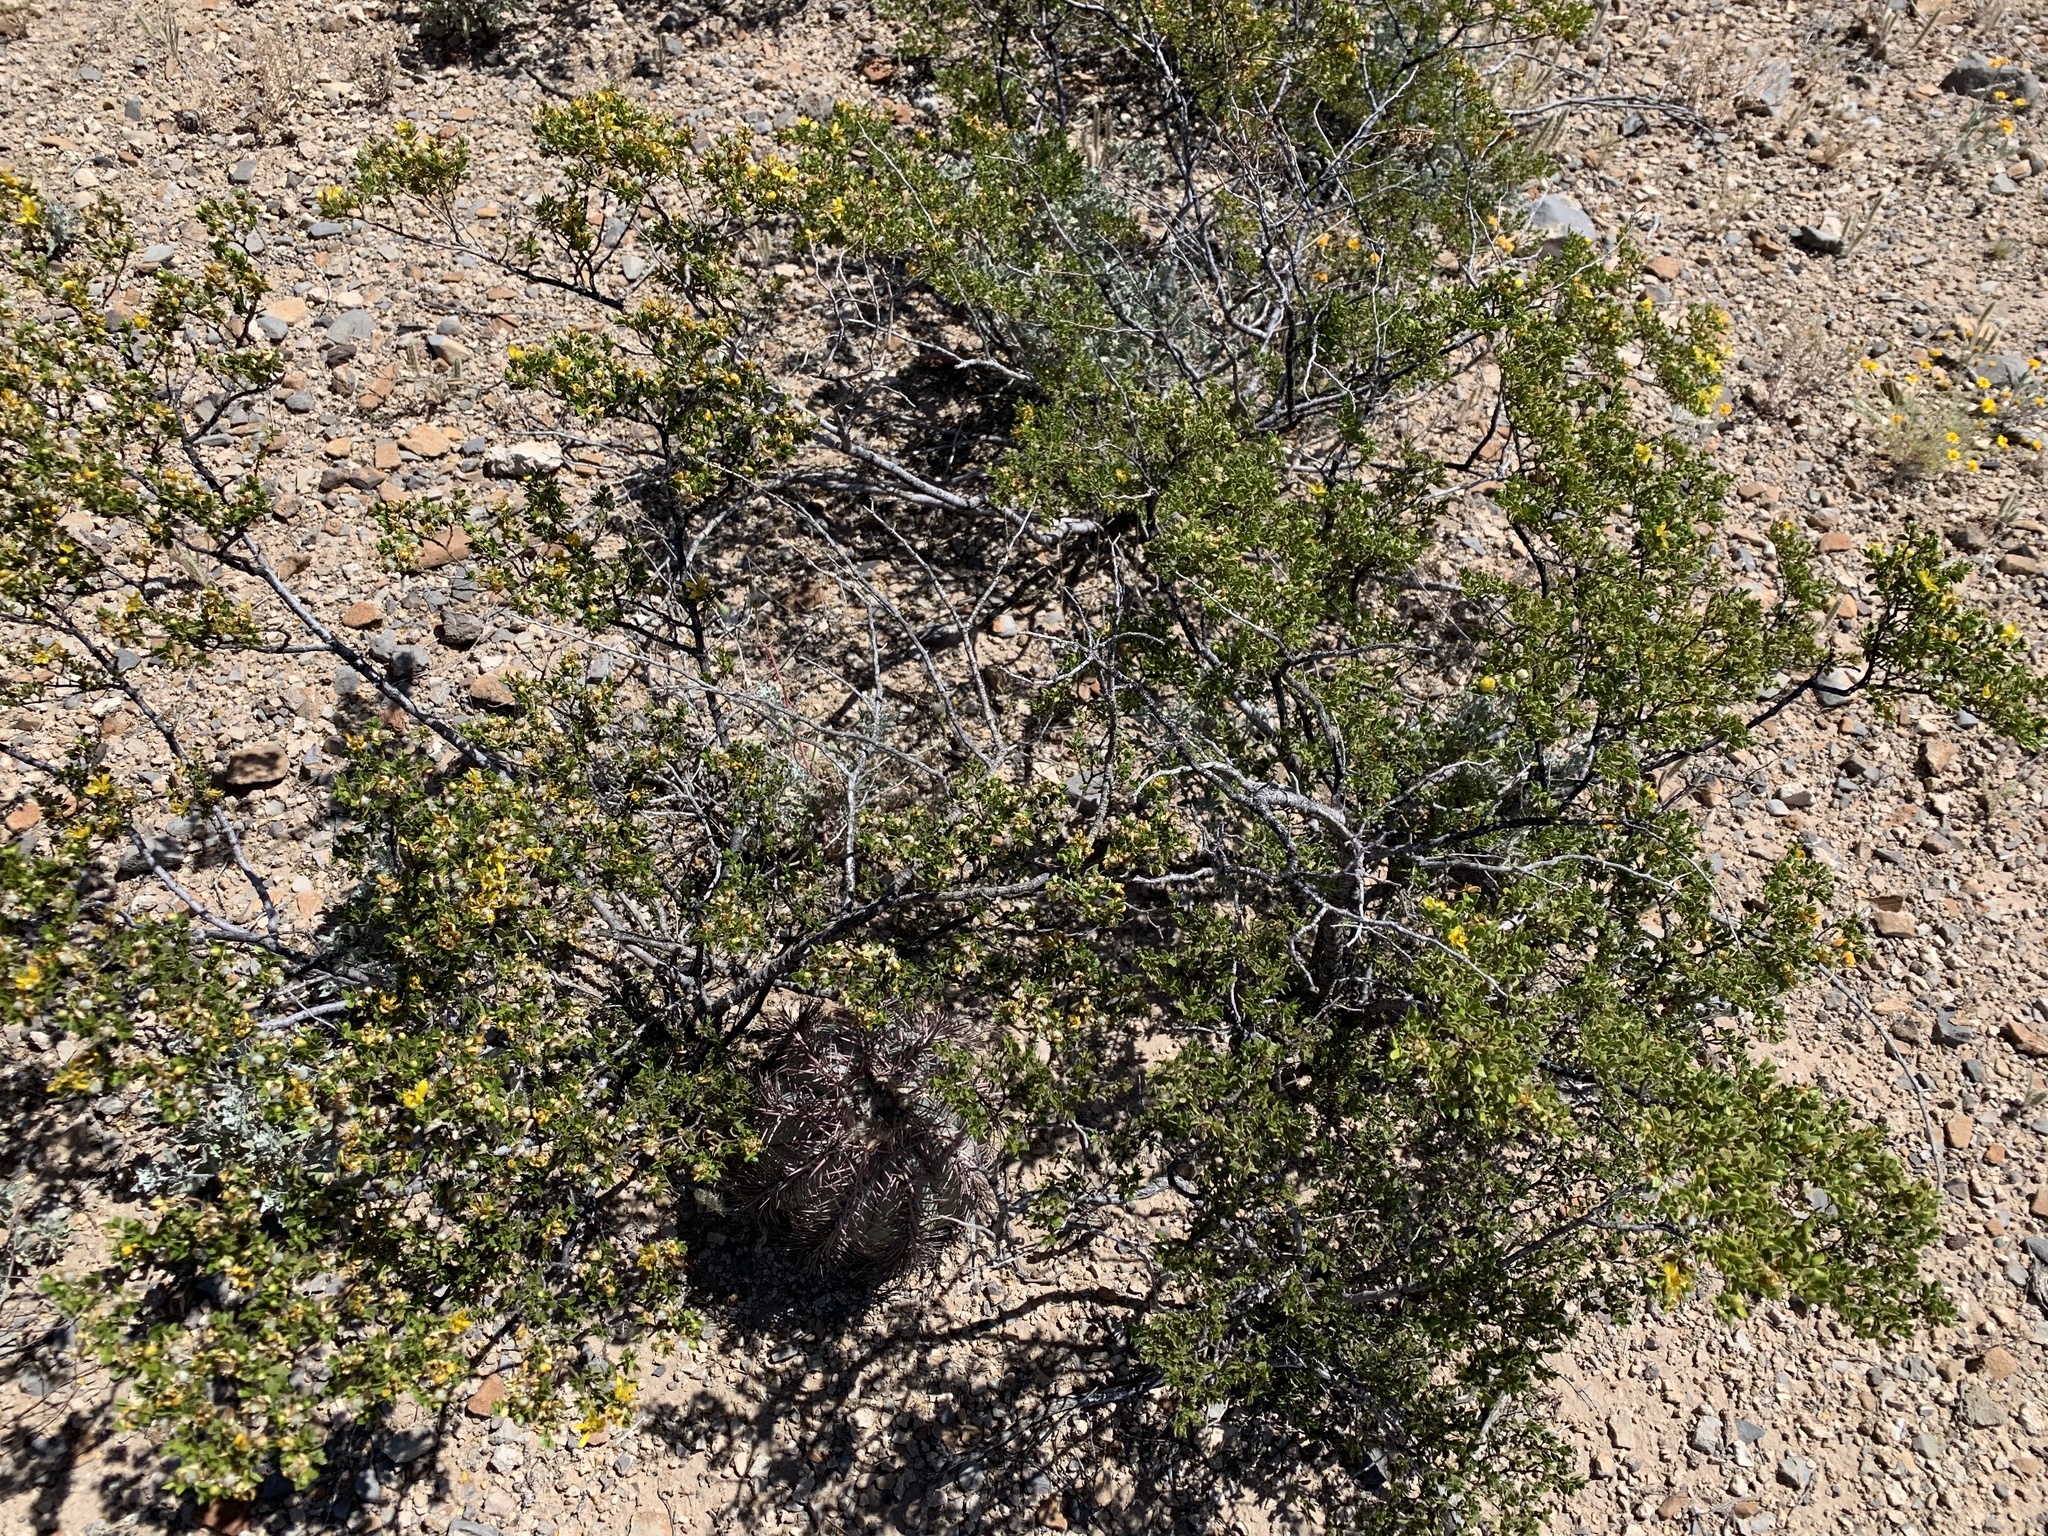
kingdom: Plantae
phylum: Tracheophyta
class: Magnoliopsida
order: Zygophyllales
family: Zygophyllaceae
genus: Larrea
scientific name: Larrea tridentata
